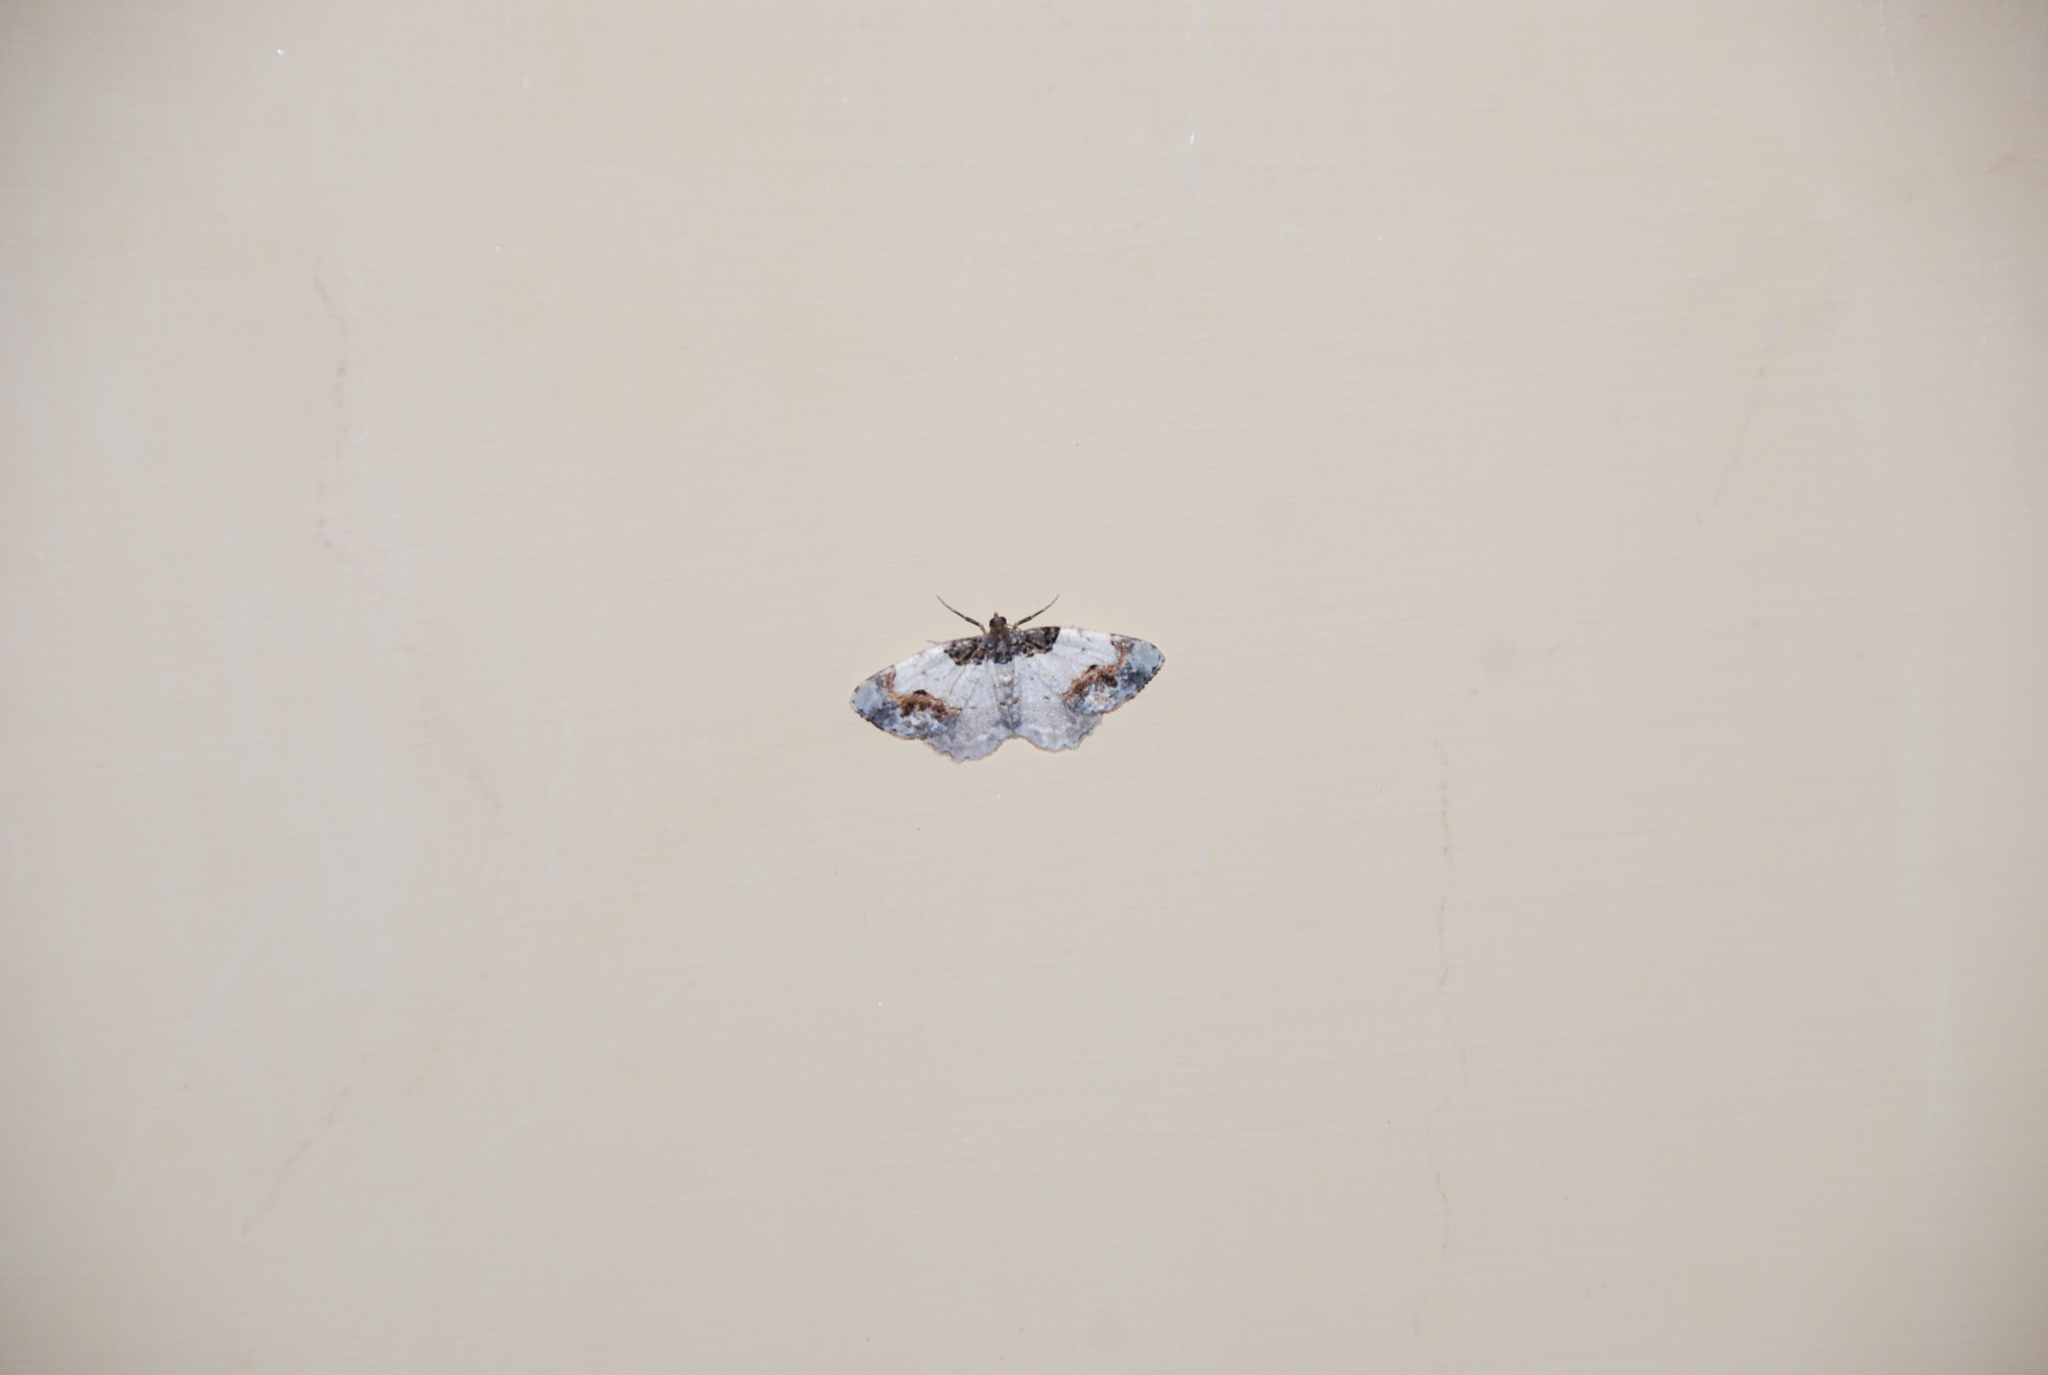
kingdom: Animalia
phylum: Arthropoda
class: Insecta
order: Lepidoptera
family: Geometridae
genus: Ligdia
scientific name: Ligdia adustata
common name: Scorched carpet
